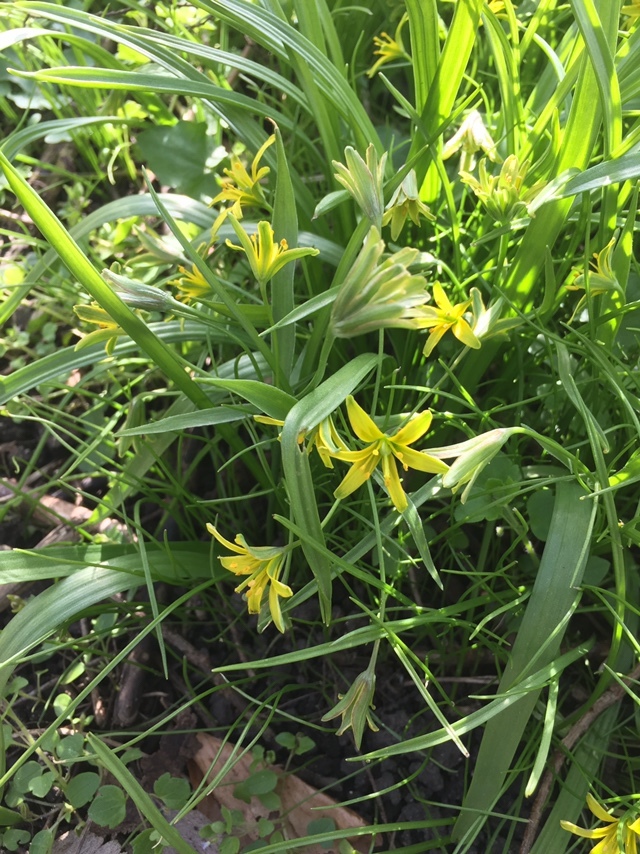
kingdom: Plantae
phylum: Tracheophyta
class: Liliopsida
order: Liliales
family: Liliaceae
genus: Gagea
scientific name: Gagea lutea
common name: Yellow star-of-bethlehem
